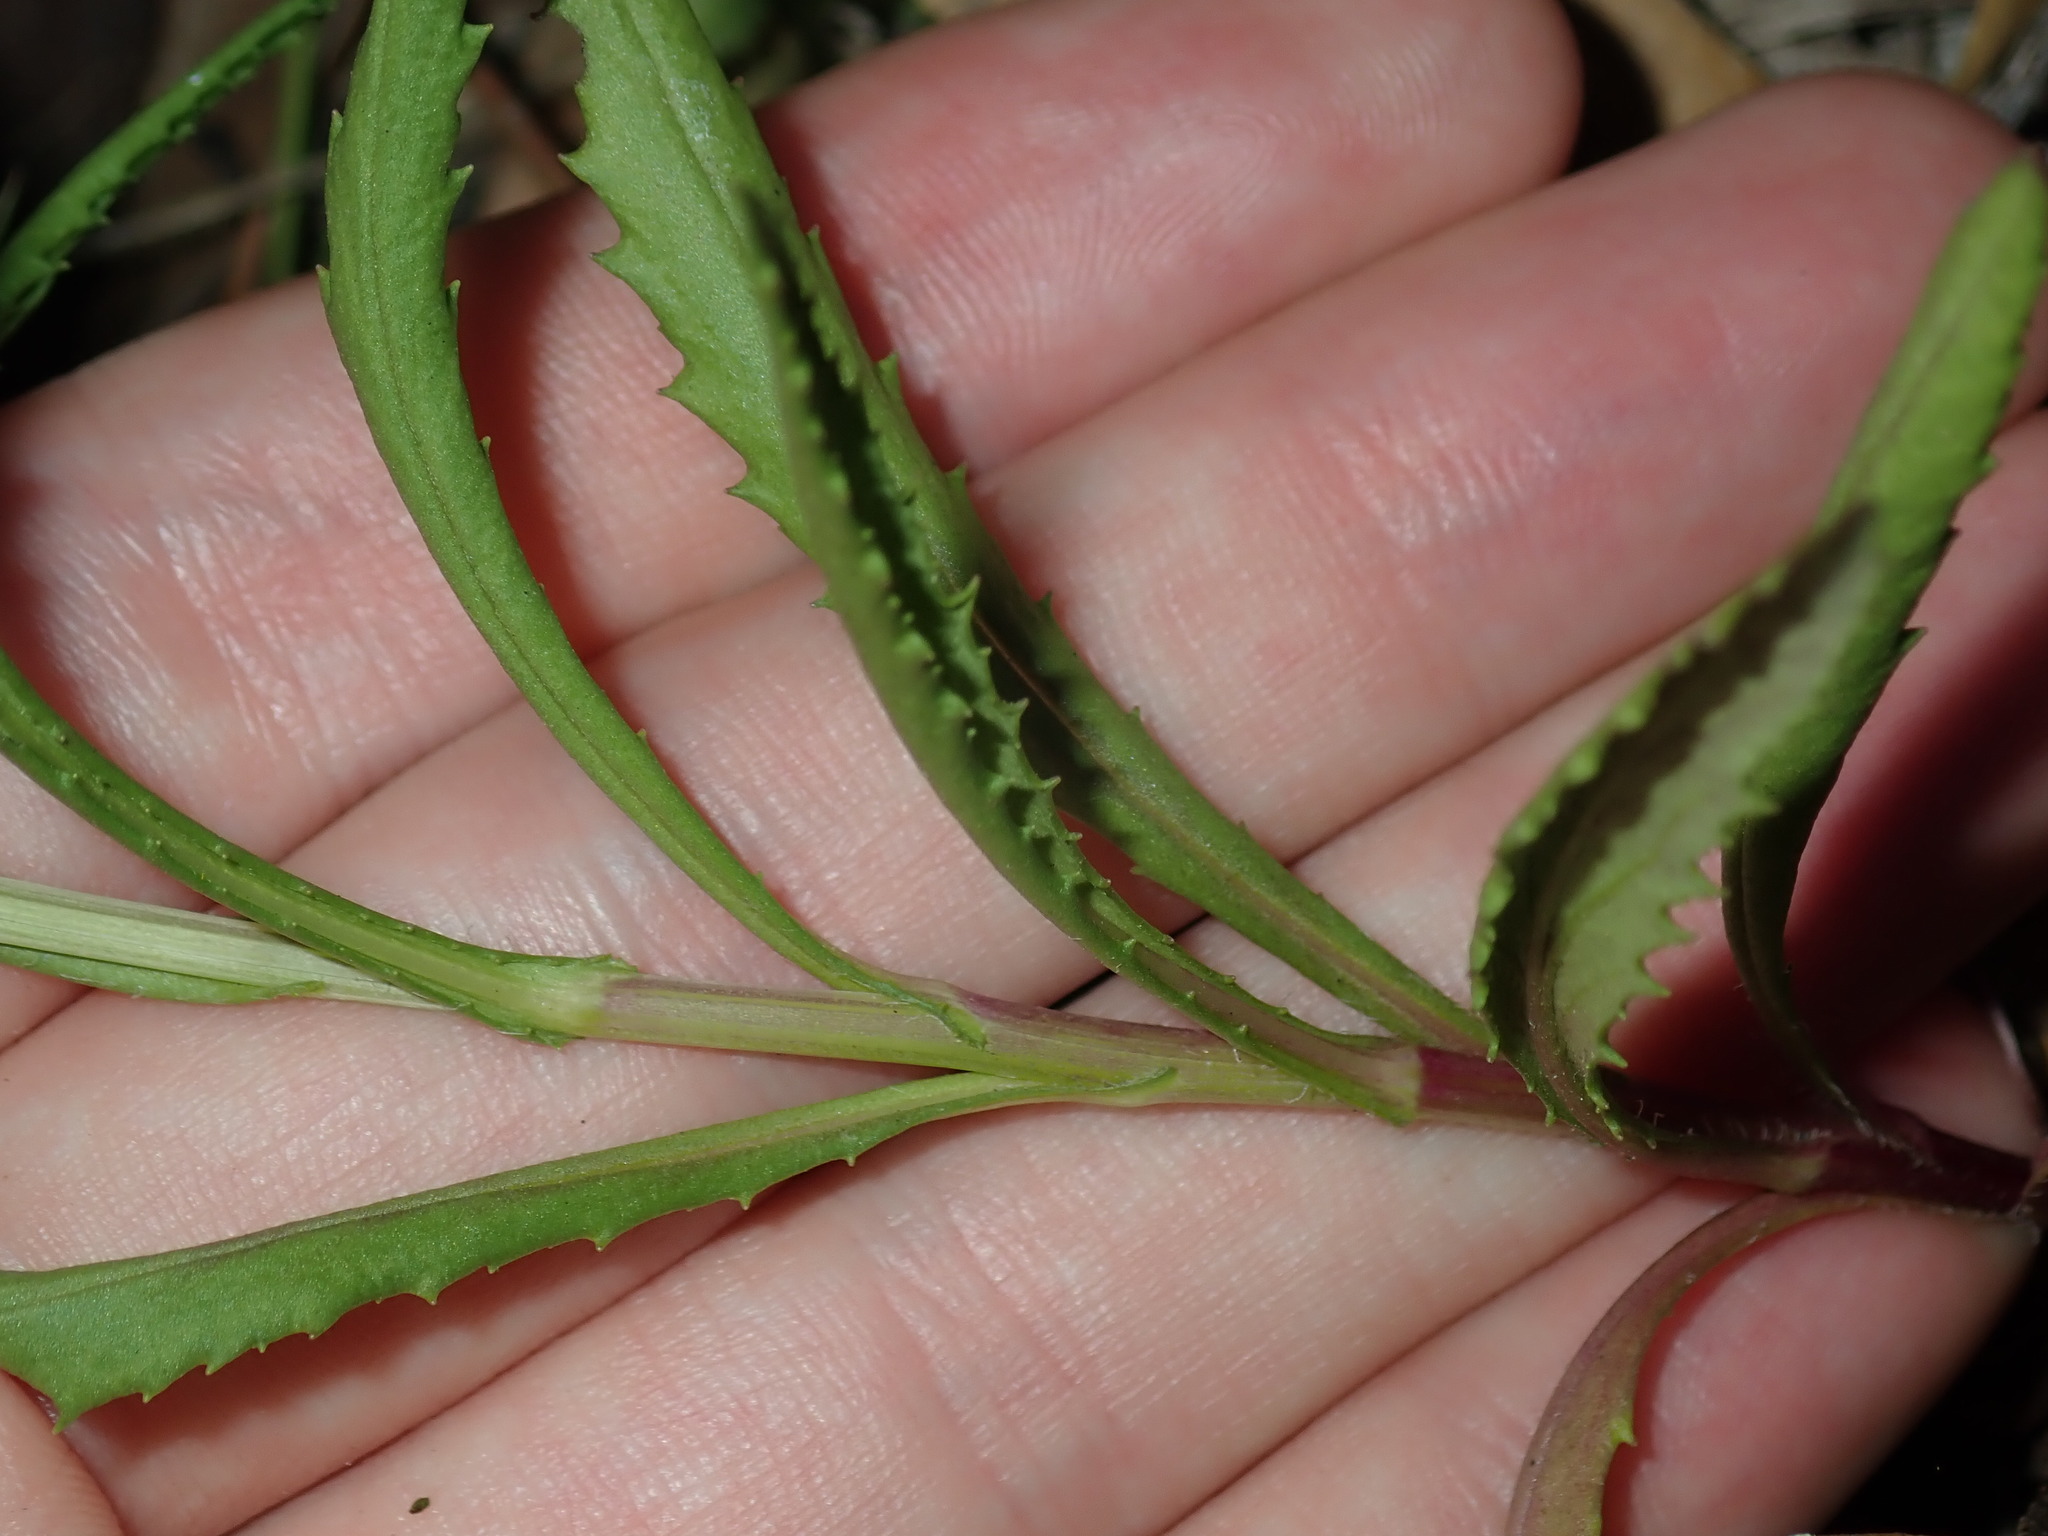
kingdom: Plantae
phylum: Tracheophyta
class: Magnoliopsida
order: Asterales
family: Asteraceae
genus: Senecio
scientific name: Senecio madagascariensis
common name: Madagascar ragwort
